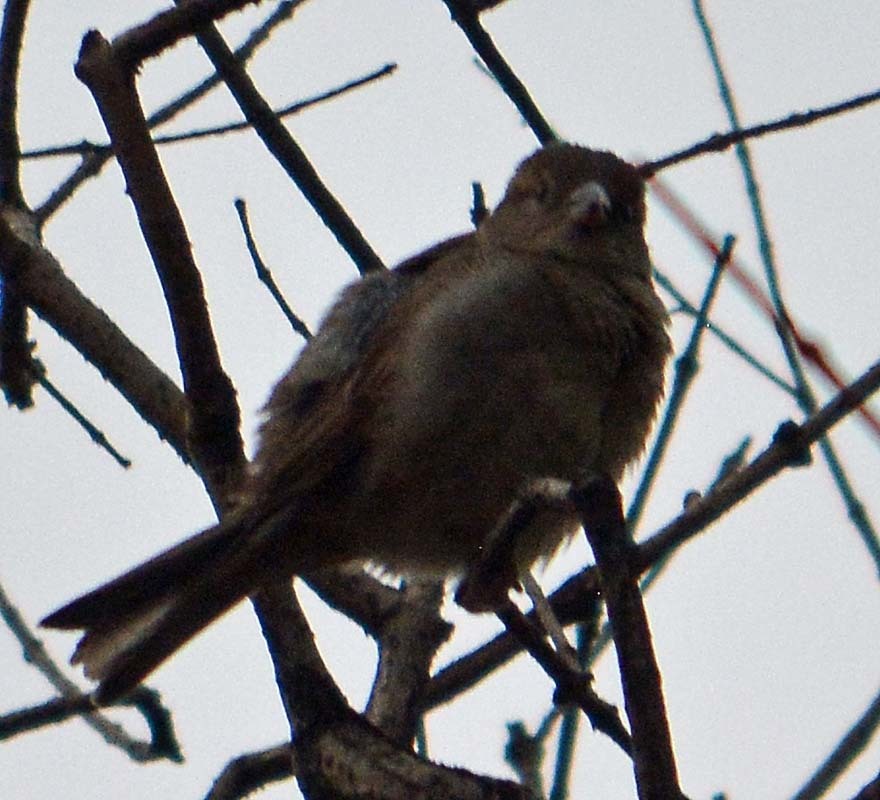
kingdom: Animalia
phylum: Chordata
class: Aves
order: Passeriformes
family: Passeridae
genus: Passer
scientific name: Passer domesticus
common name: House sparrow
